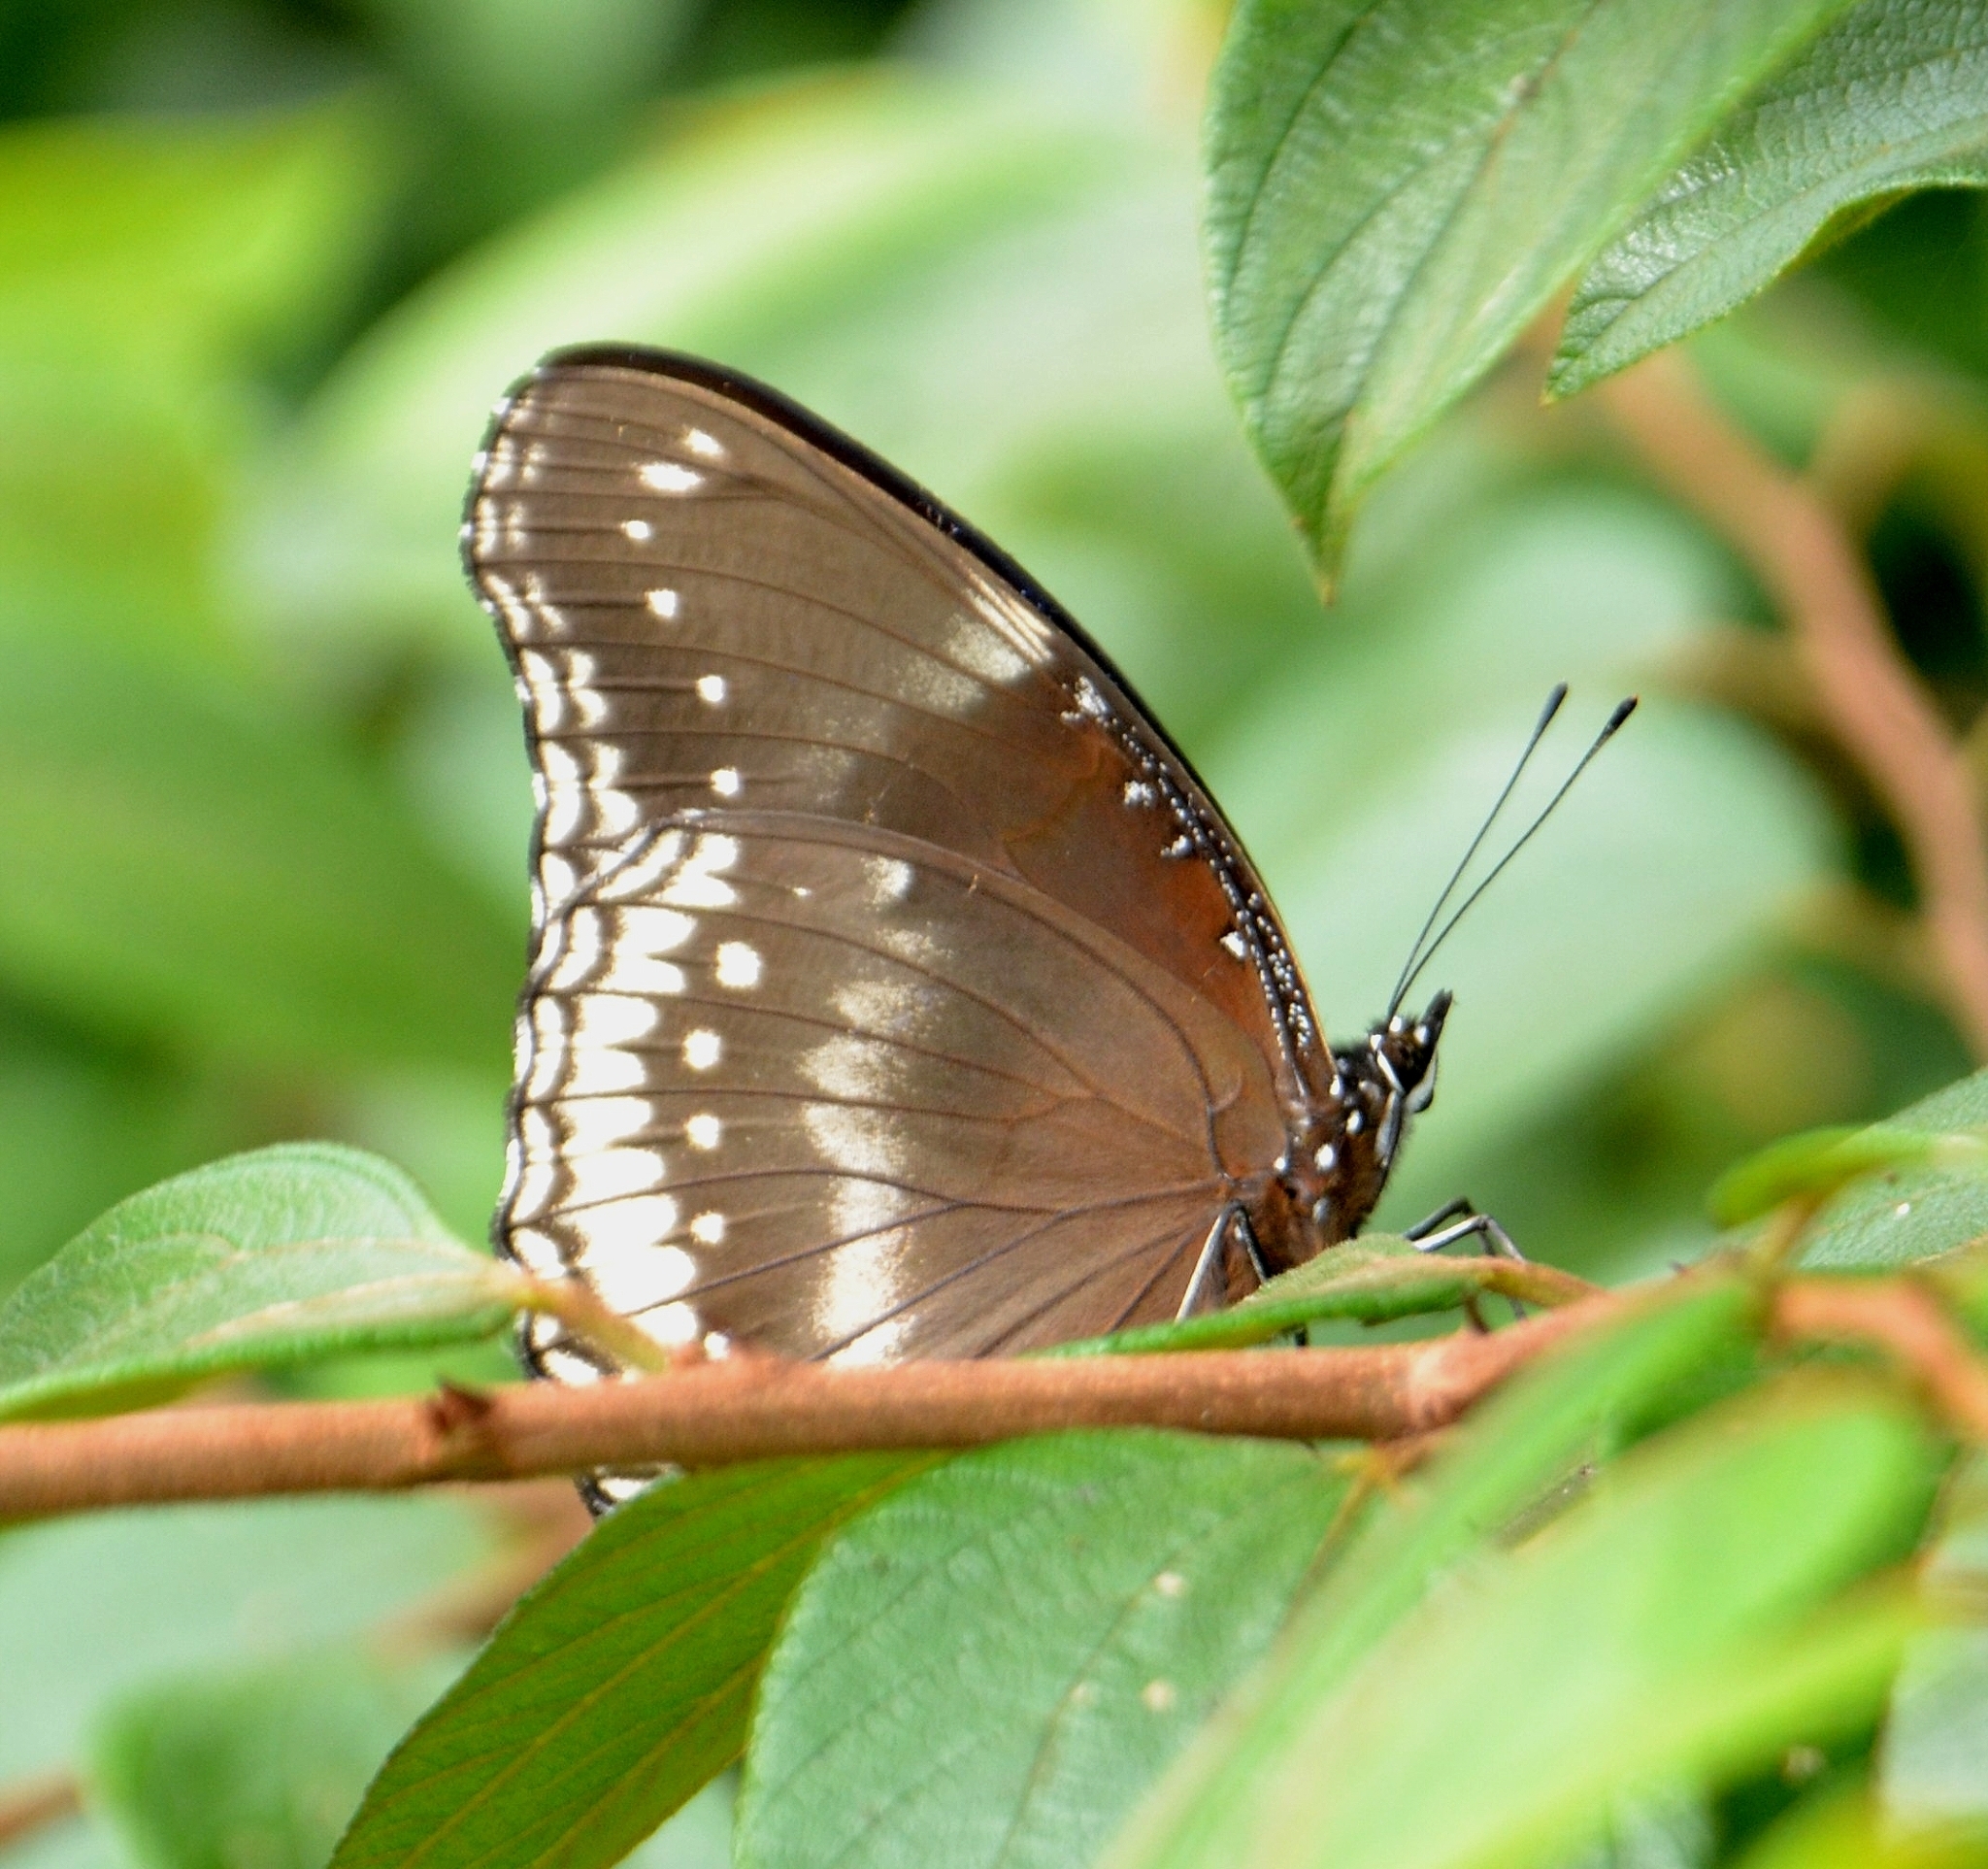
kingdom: Animalia
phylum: Arthropoda
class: Insecta
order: Lepidoptera
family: Nymphalidae
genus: Hypolimnas
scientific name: Hypolimnas bolina
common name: Great eggfly
